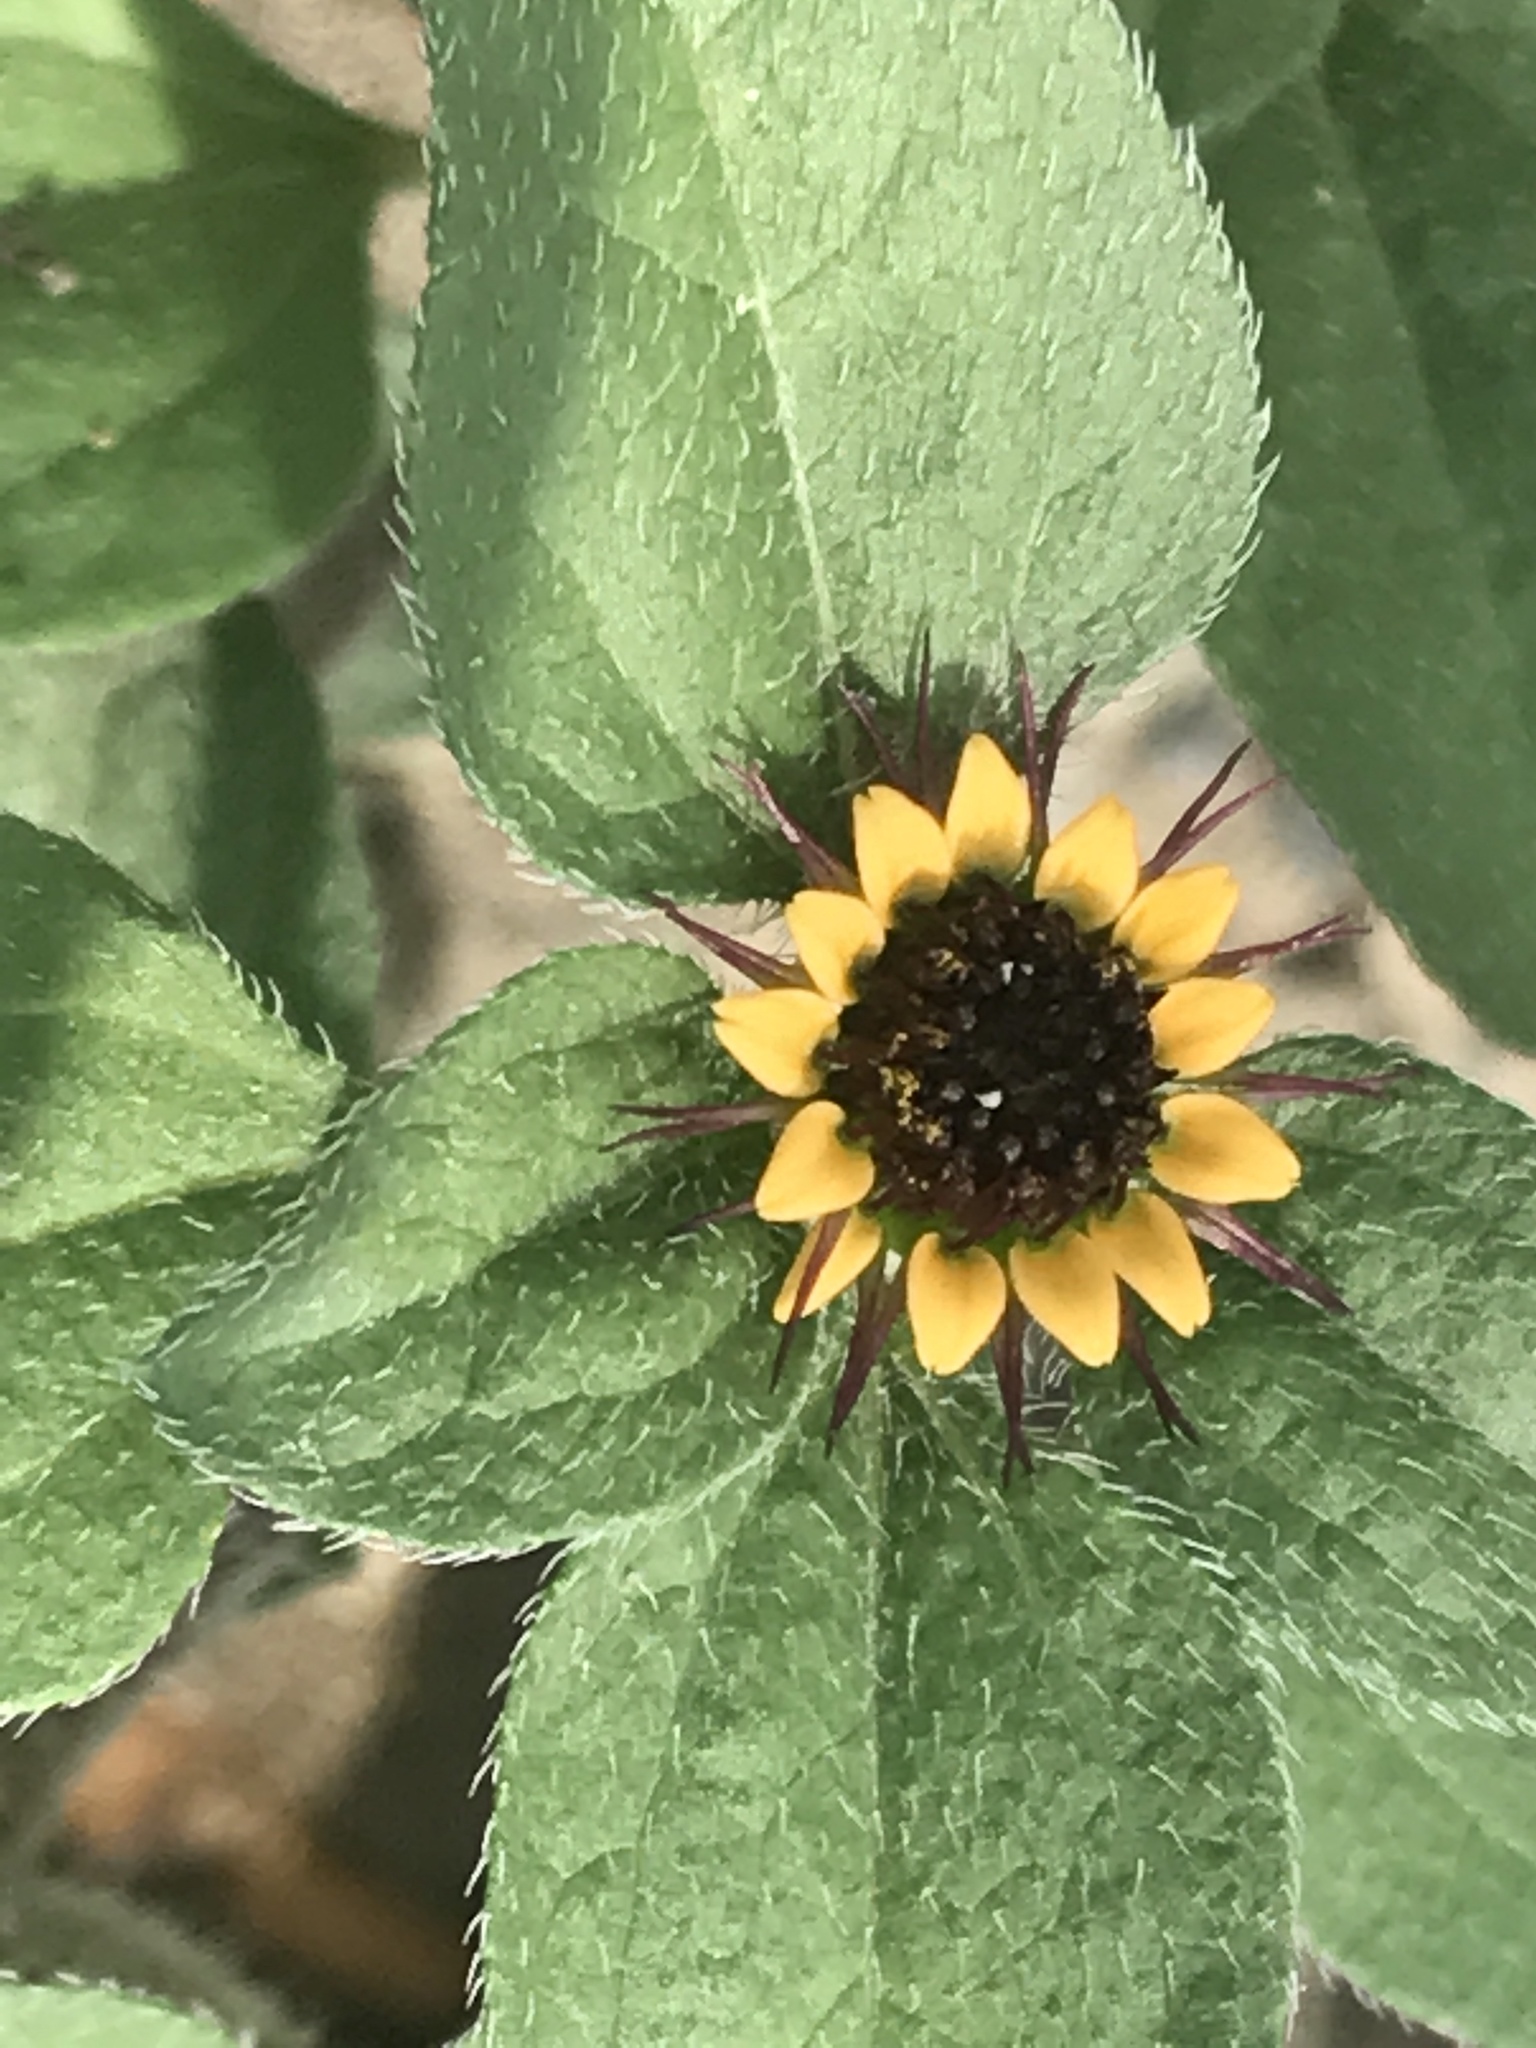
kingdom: Plantae
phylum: Tracheophyta
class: Magnoliopsida
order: Asterales
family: Asteraceae
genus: Sanvitalia
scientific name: Sanvitalia angustifolia
